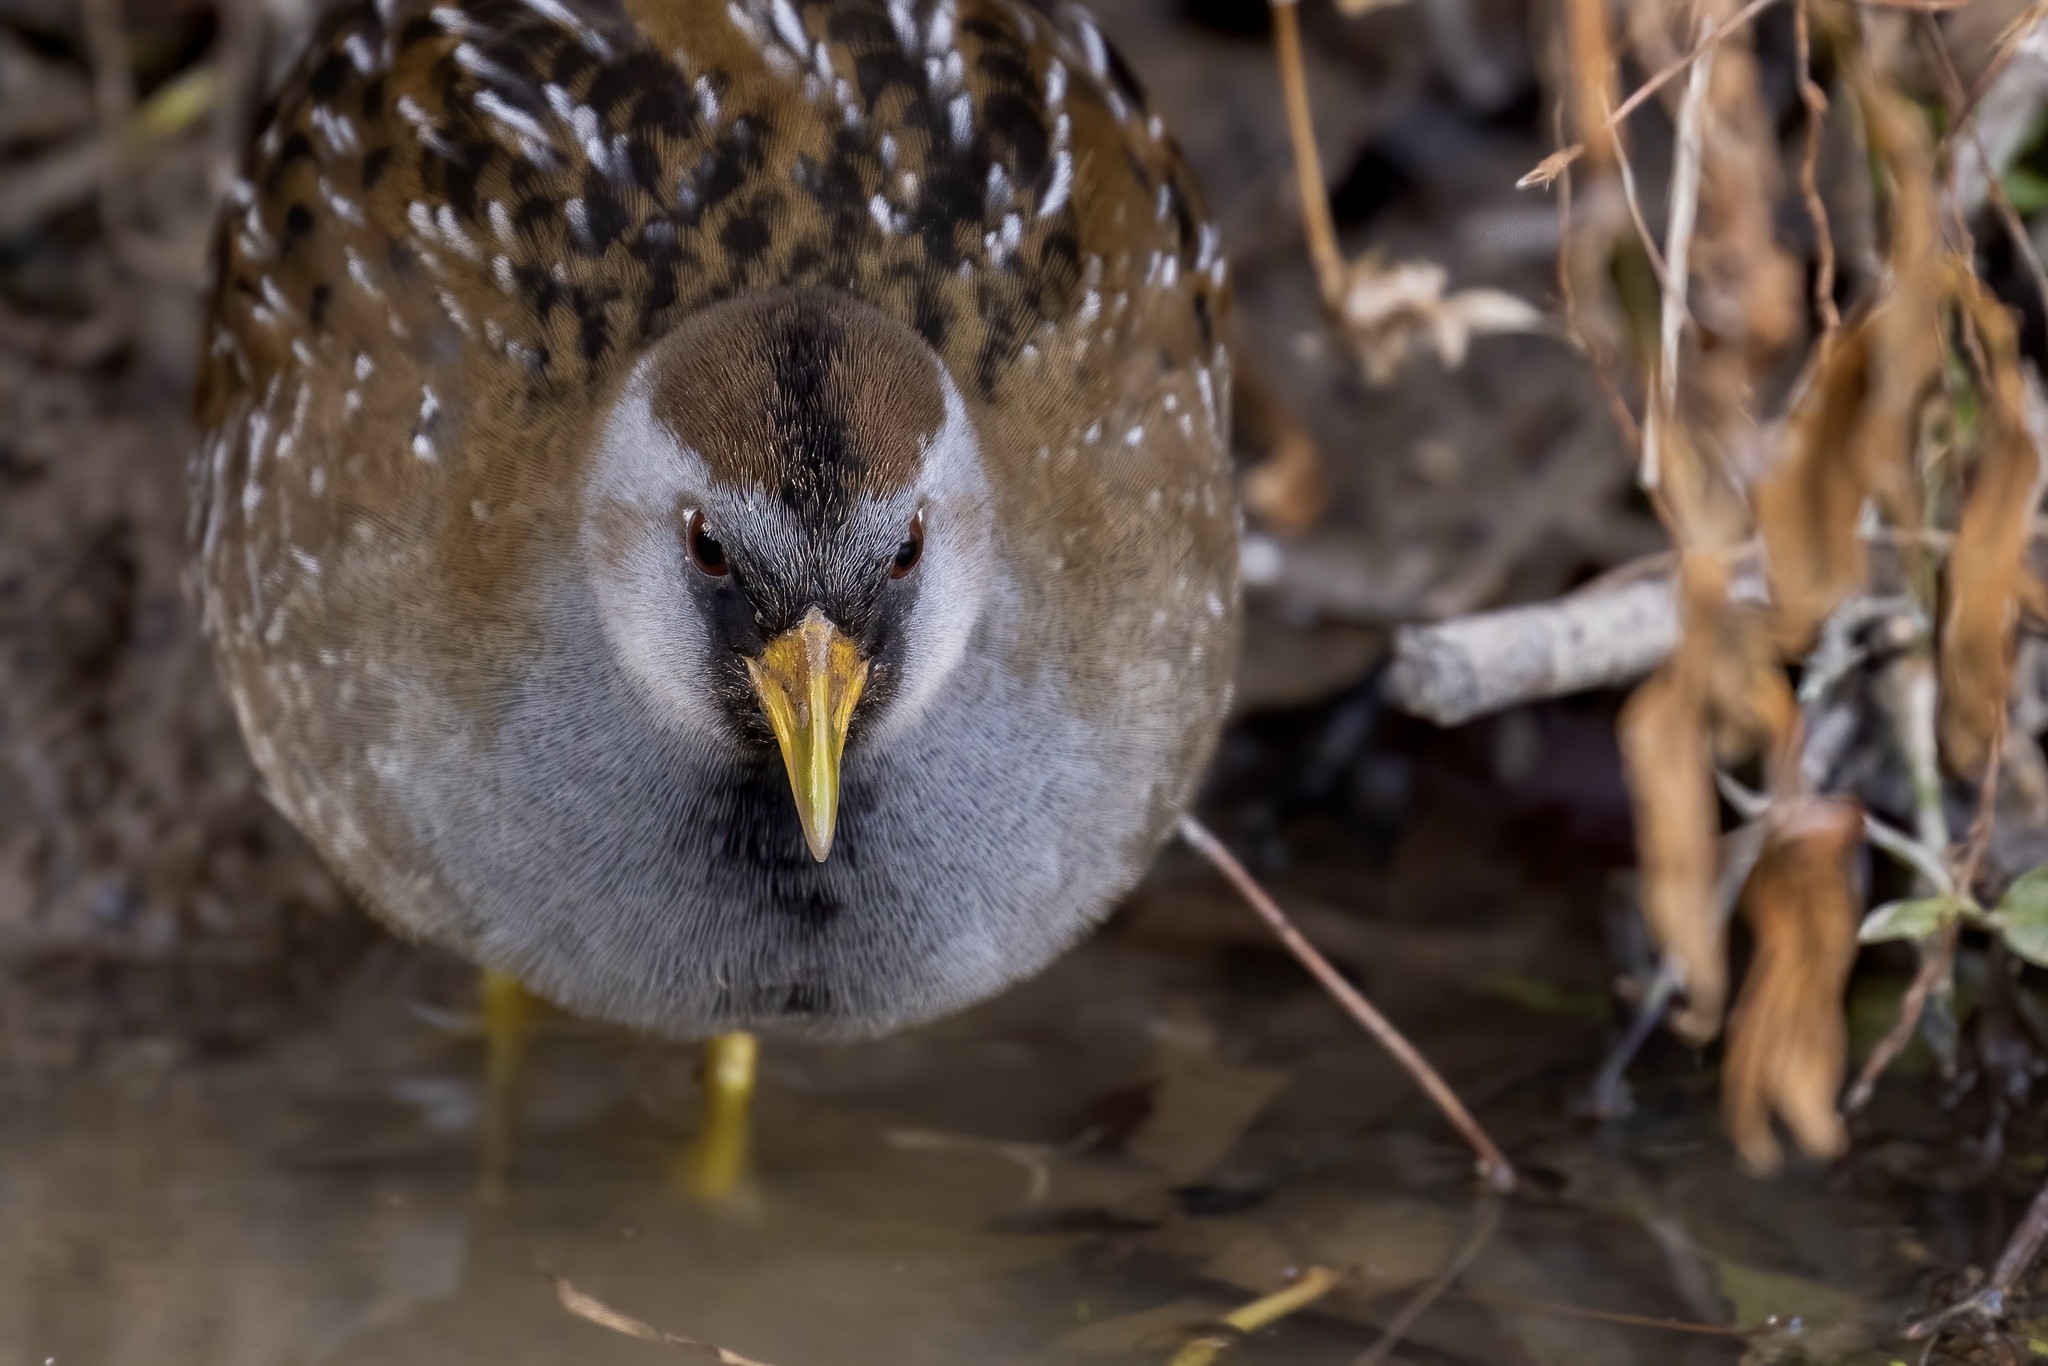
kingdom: Animalia
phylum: Chordata
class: Aves
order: Gruiformes
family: Rallidae
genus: Porzana
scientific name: Porzana carolina
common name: Sora
